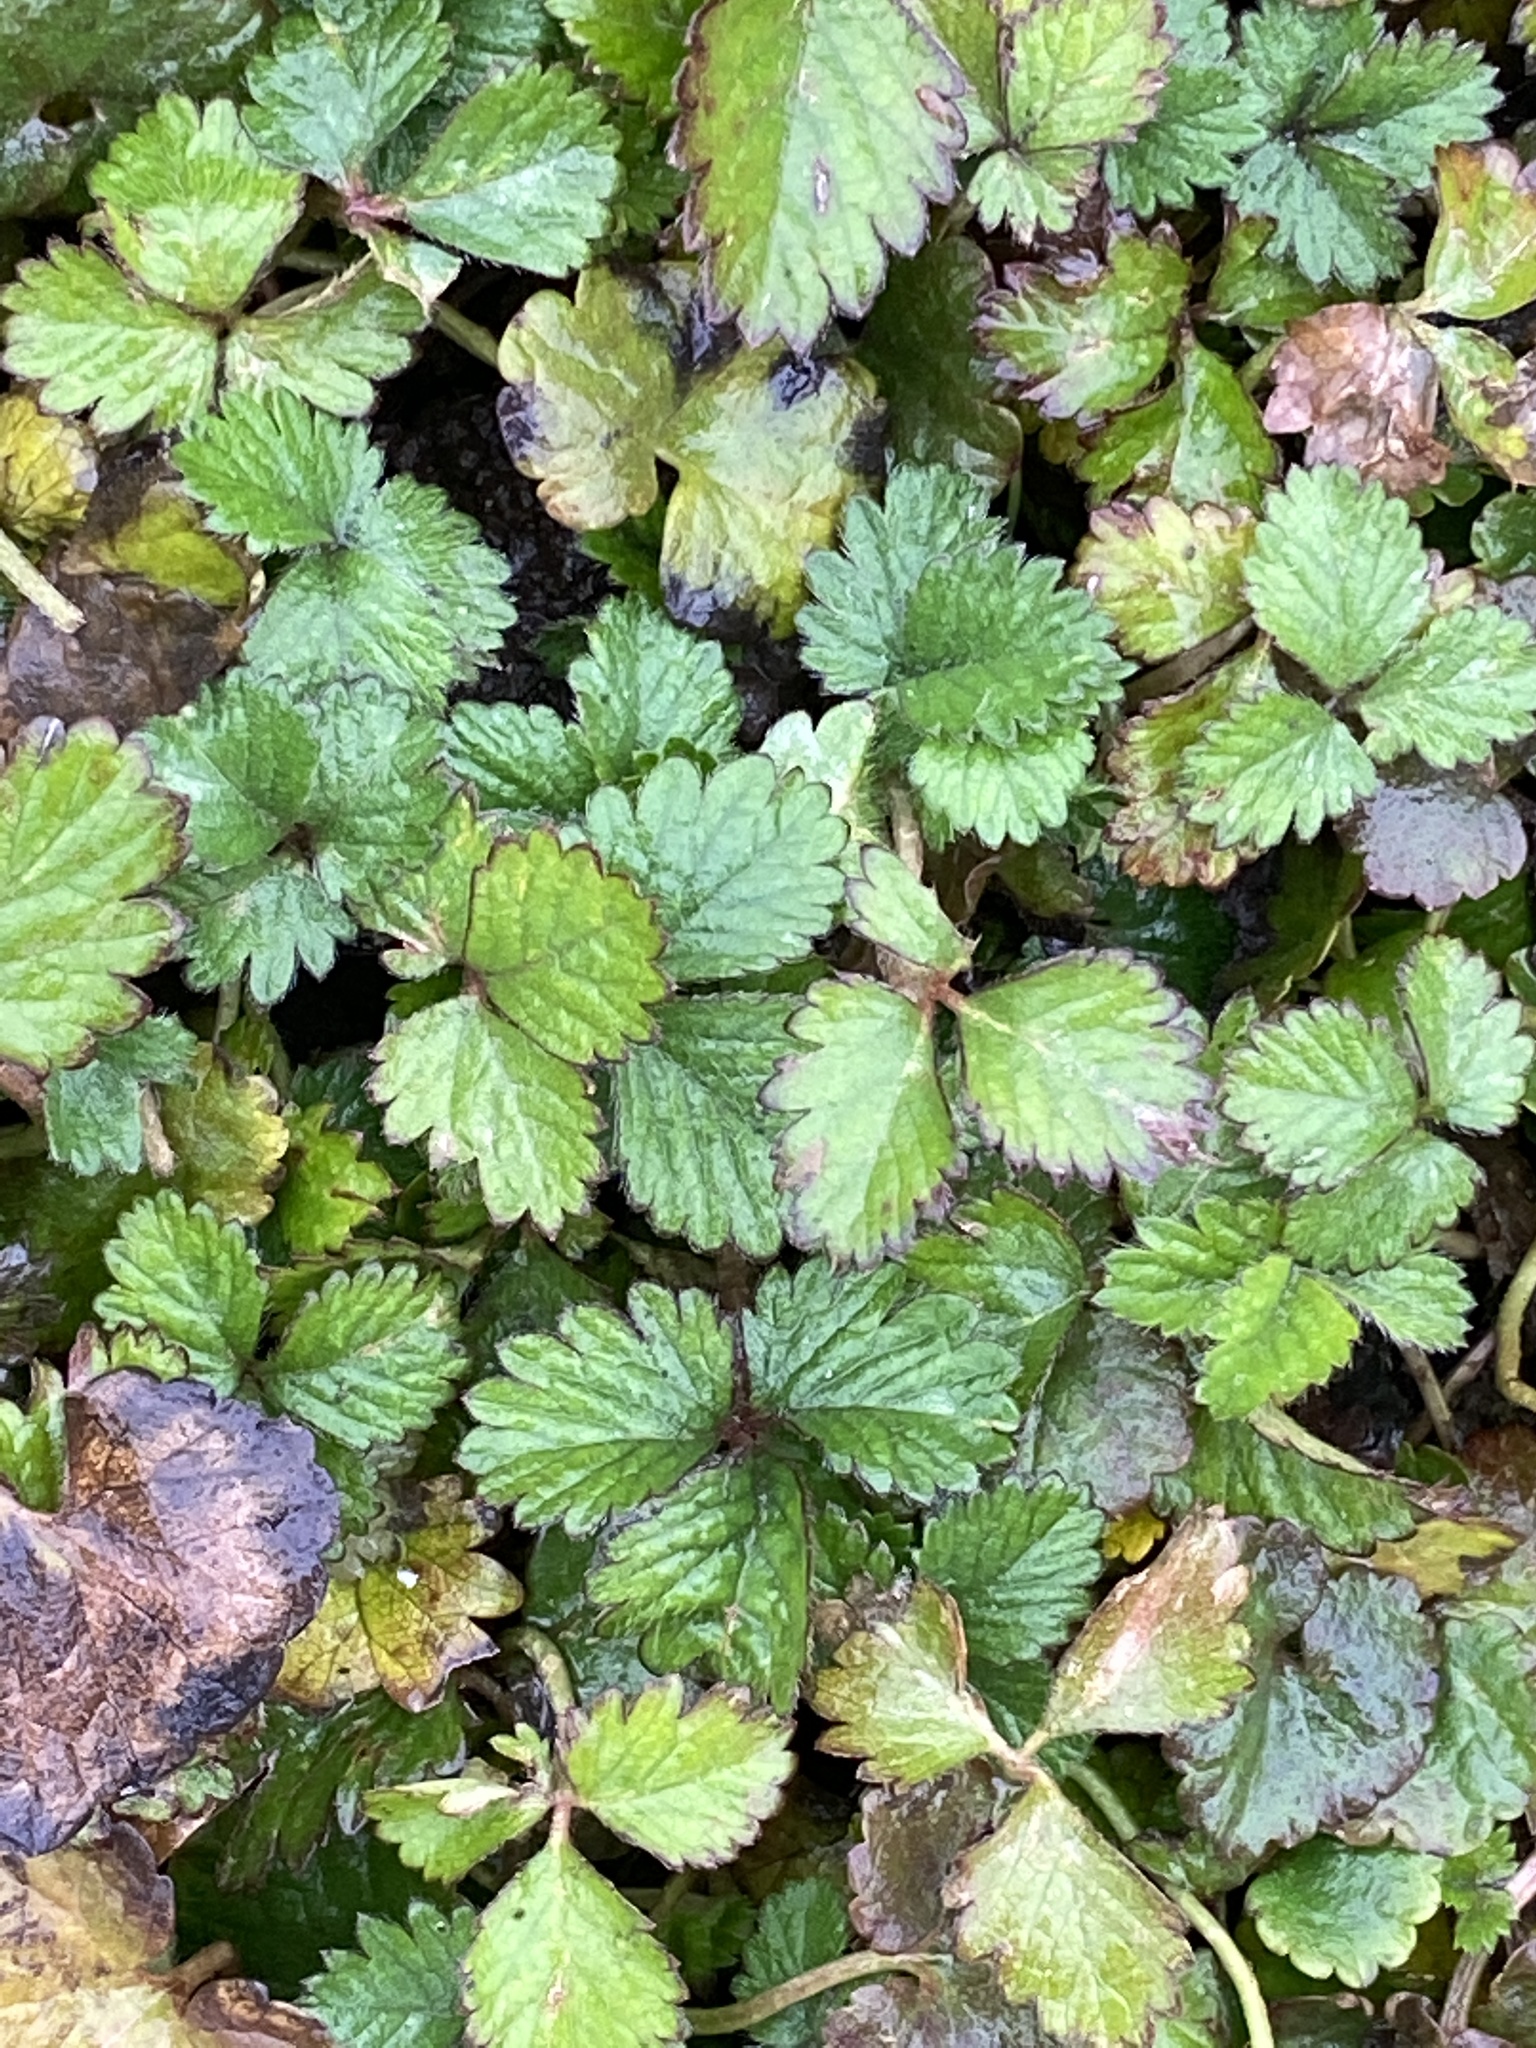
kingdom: Plantae
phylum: Tracheophyta
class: Magnoliopsida
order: Rosales
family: Rosaceae
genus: Potentilla
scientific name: Potentilla indica
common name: Yellow-flowered strawberry
